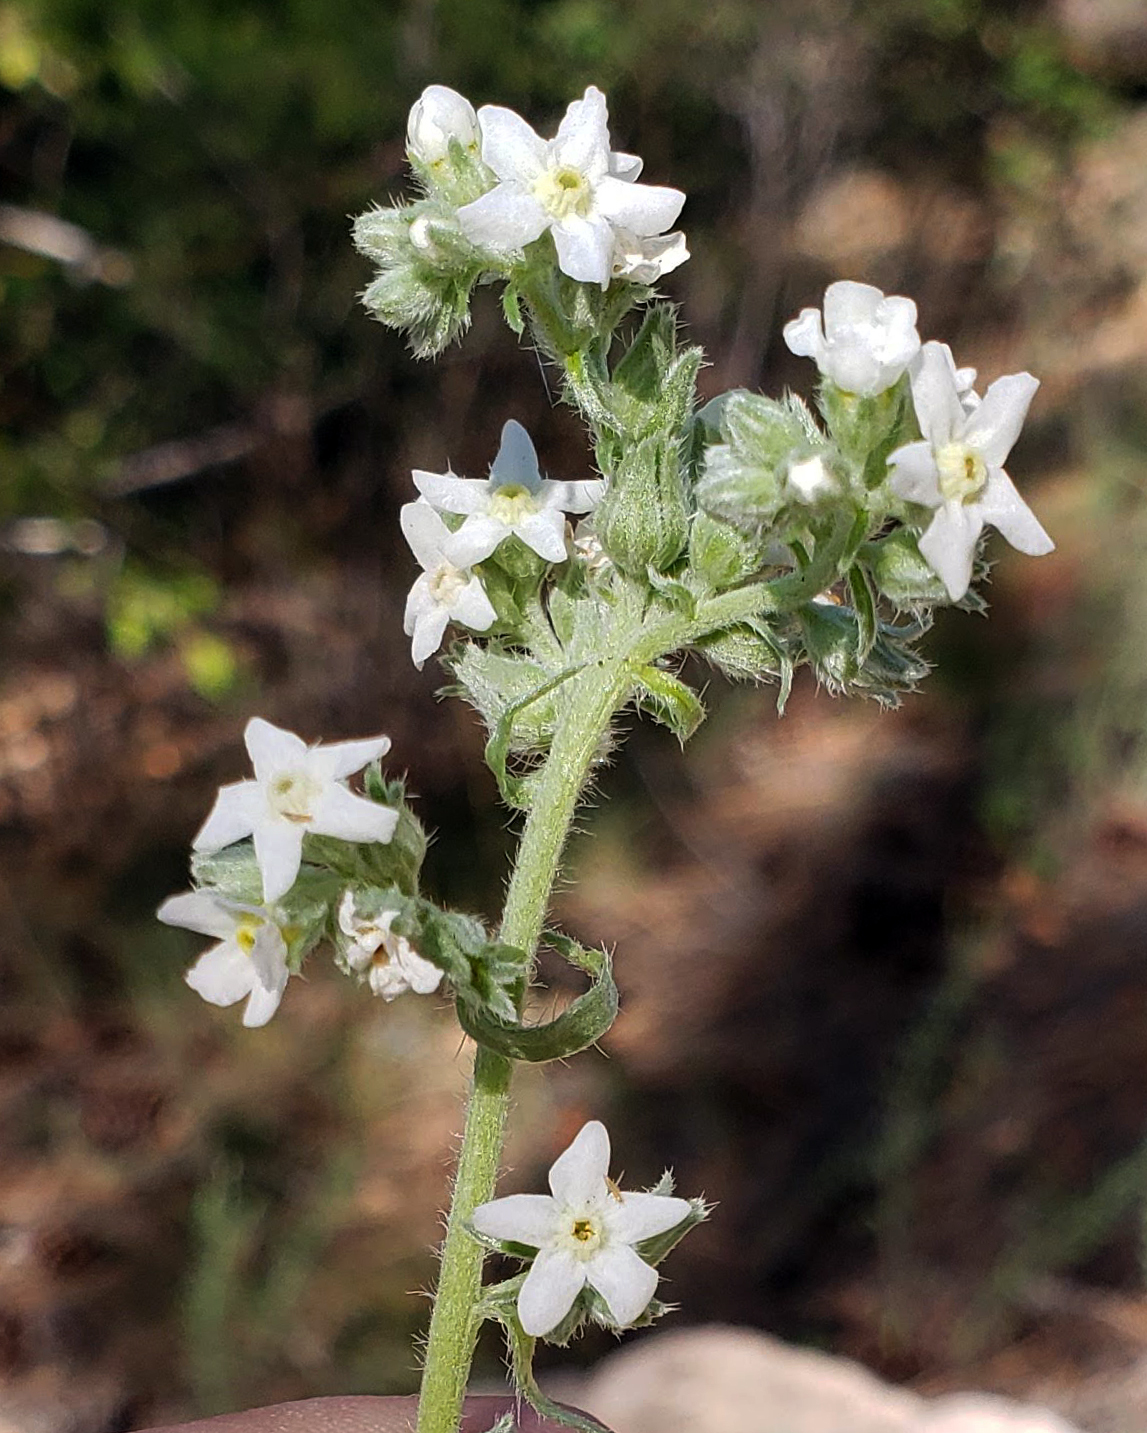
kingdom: Plantae
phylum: Tracheophyta
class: Magnoliopsida
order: Boraginales
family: Boraginaceae
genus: Oreocarya
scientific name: Oreocarya suffruticosa
